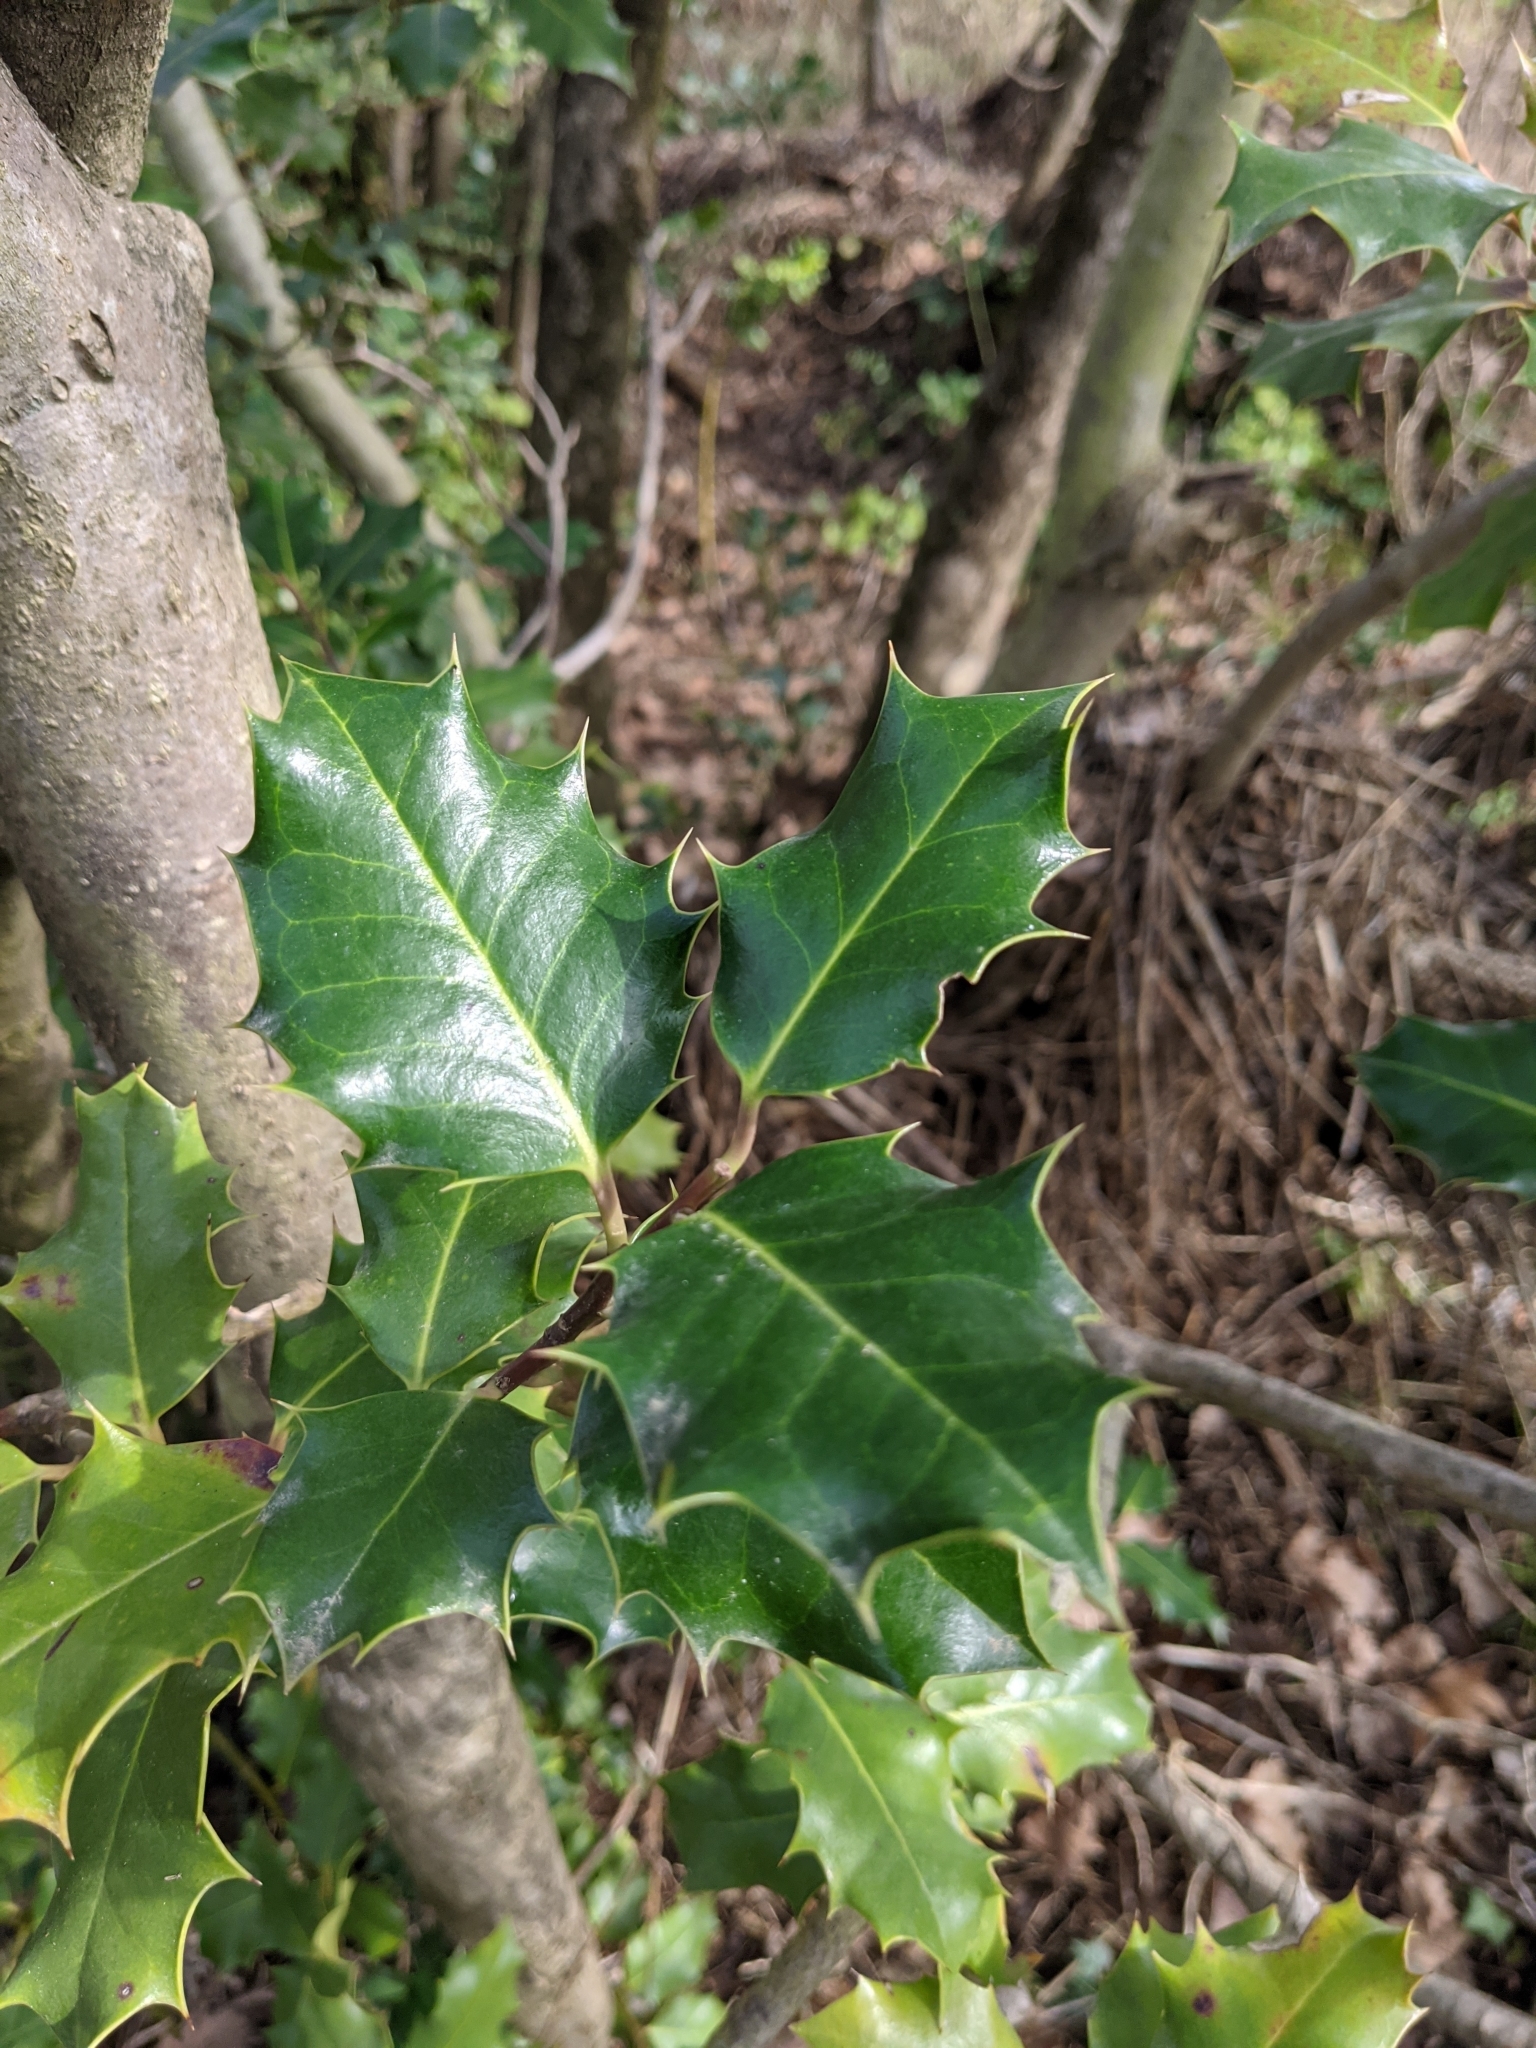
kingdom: Plantae
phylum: Tracheophyta
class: Magnoliopsida
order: Aquifoliales
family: Aquifoliaceae
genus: Ilex
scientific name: Ilex aquifolium
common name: English holly
